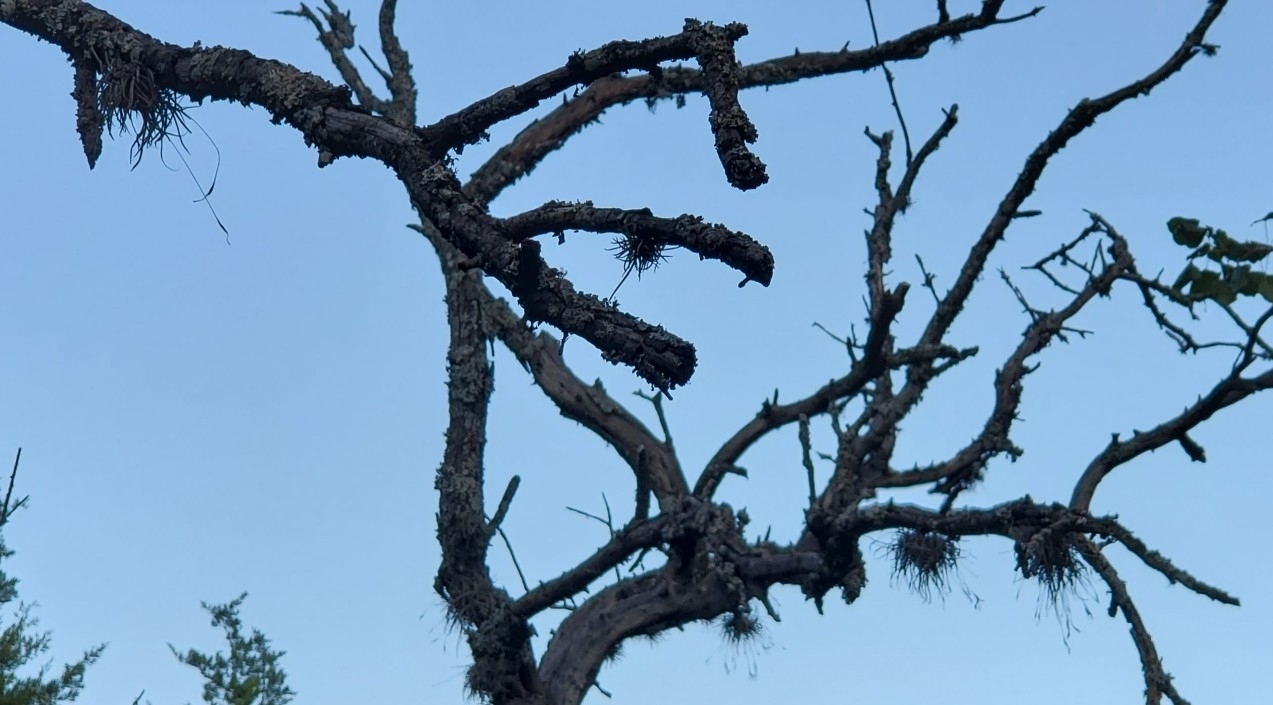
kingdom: Plantae
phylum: Tracheophyta
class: Liliopsida
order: Poales
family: Bromeliaceae
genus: Tillandsia
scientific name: Tillandsia recurvata
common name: Small ballmoss
